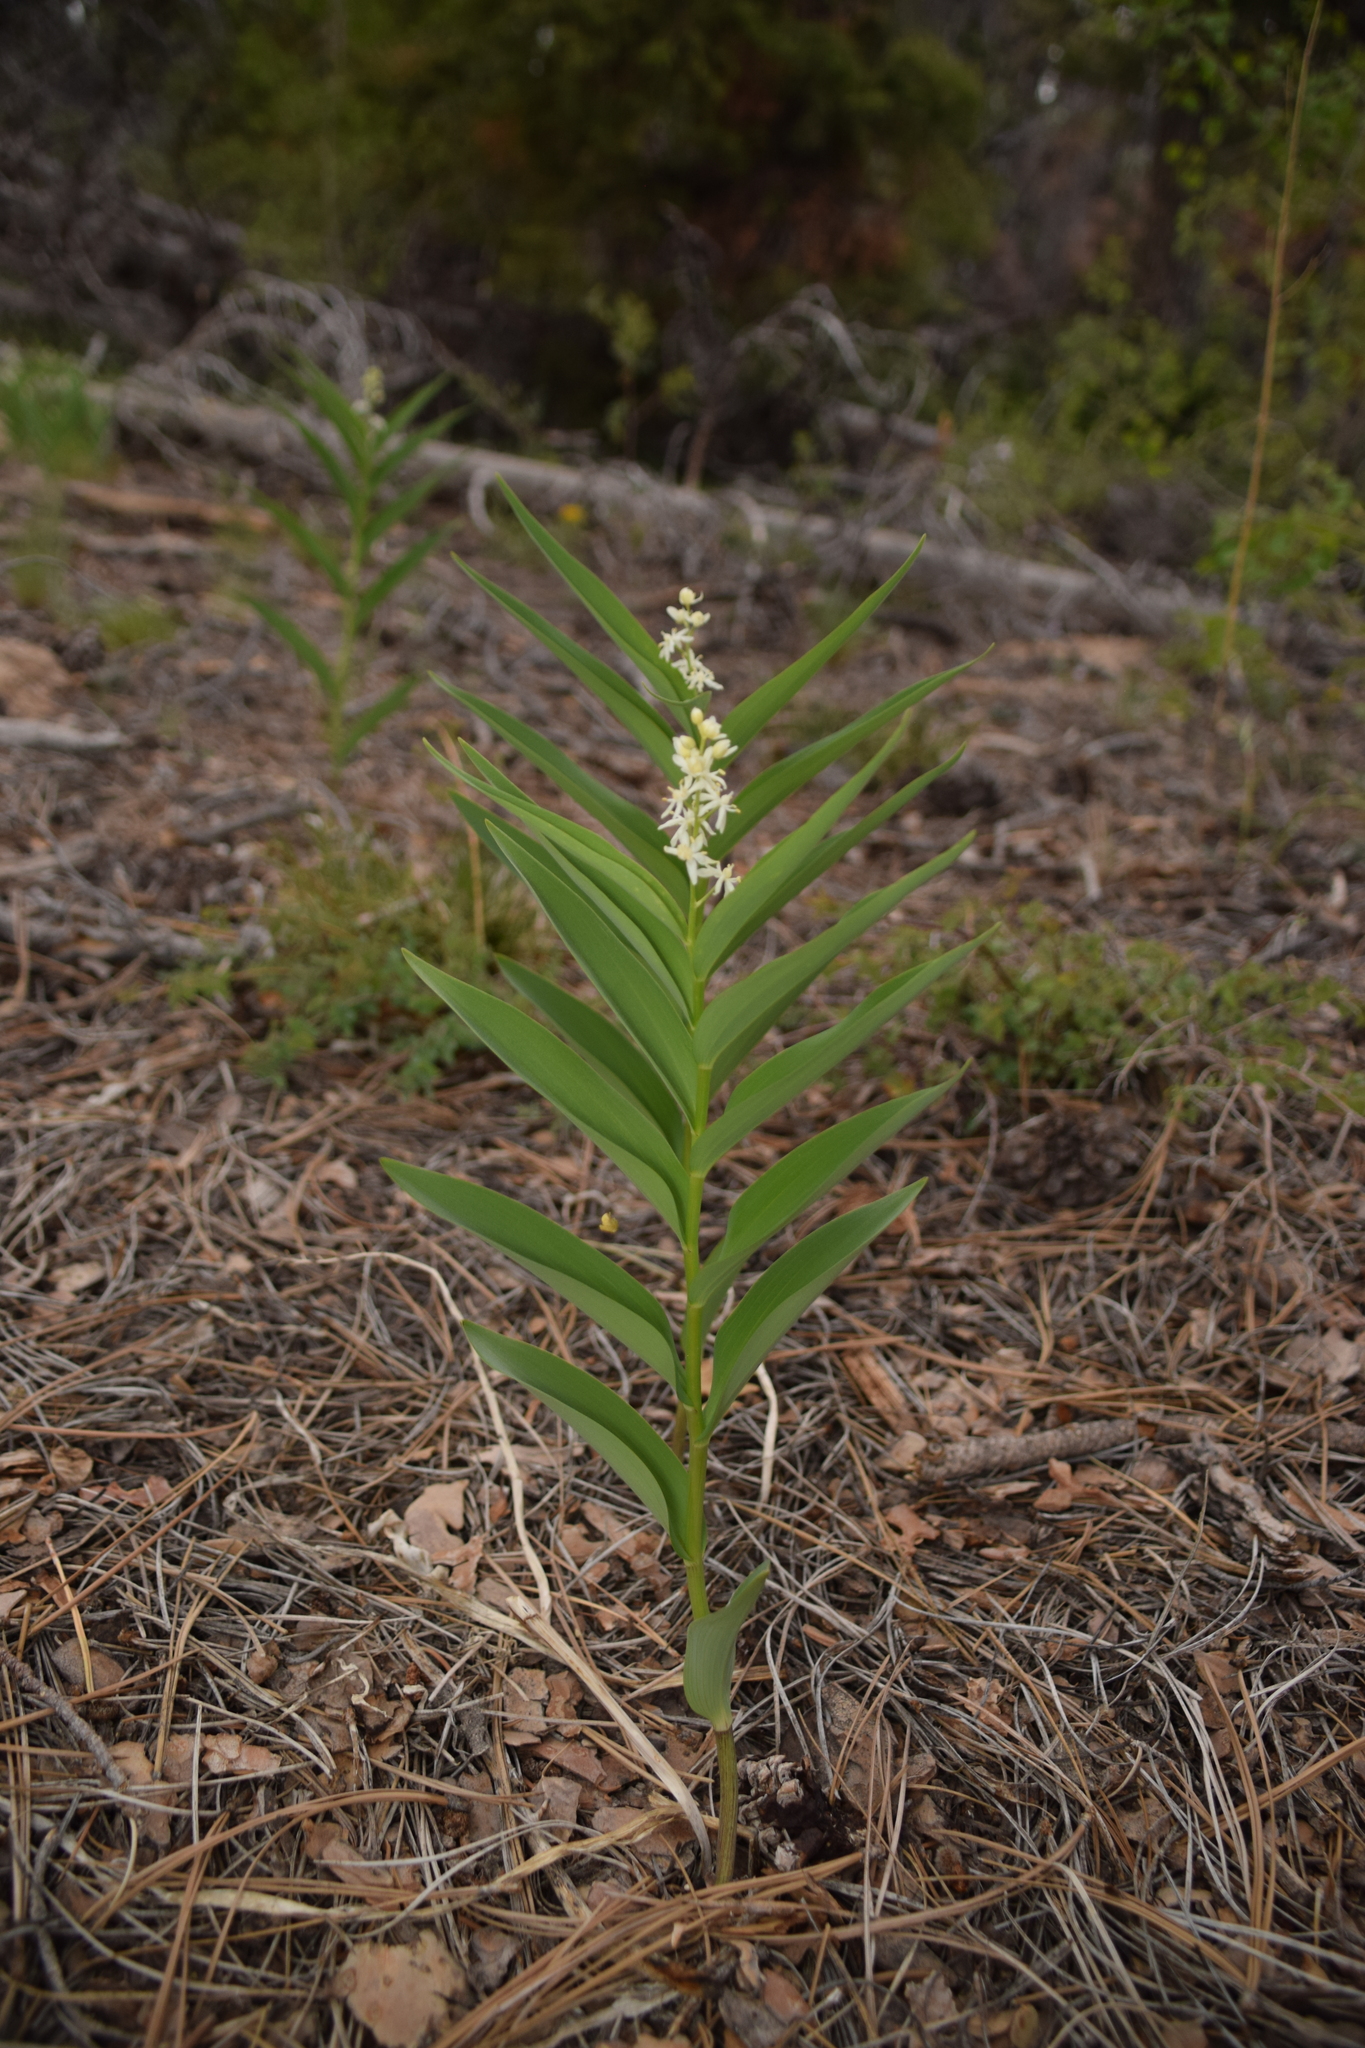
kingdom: Plantae
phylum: Tracheophyta
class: Liliopsida
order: Asparagales
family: Asparagaceae
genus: Maianthemum
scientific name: Maianthemum stellatum
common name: Little false solomon's seal
